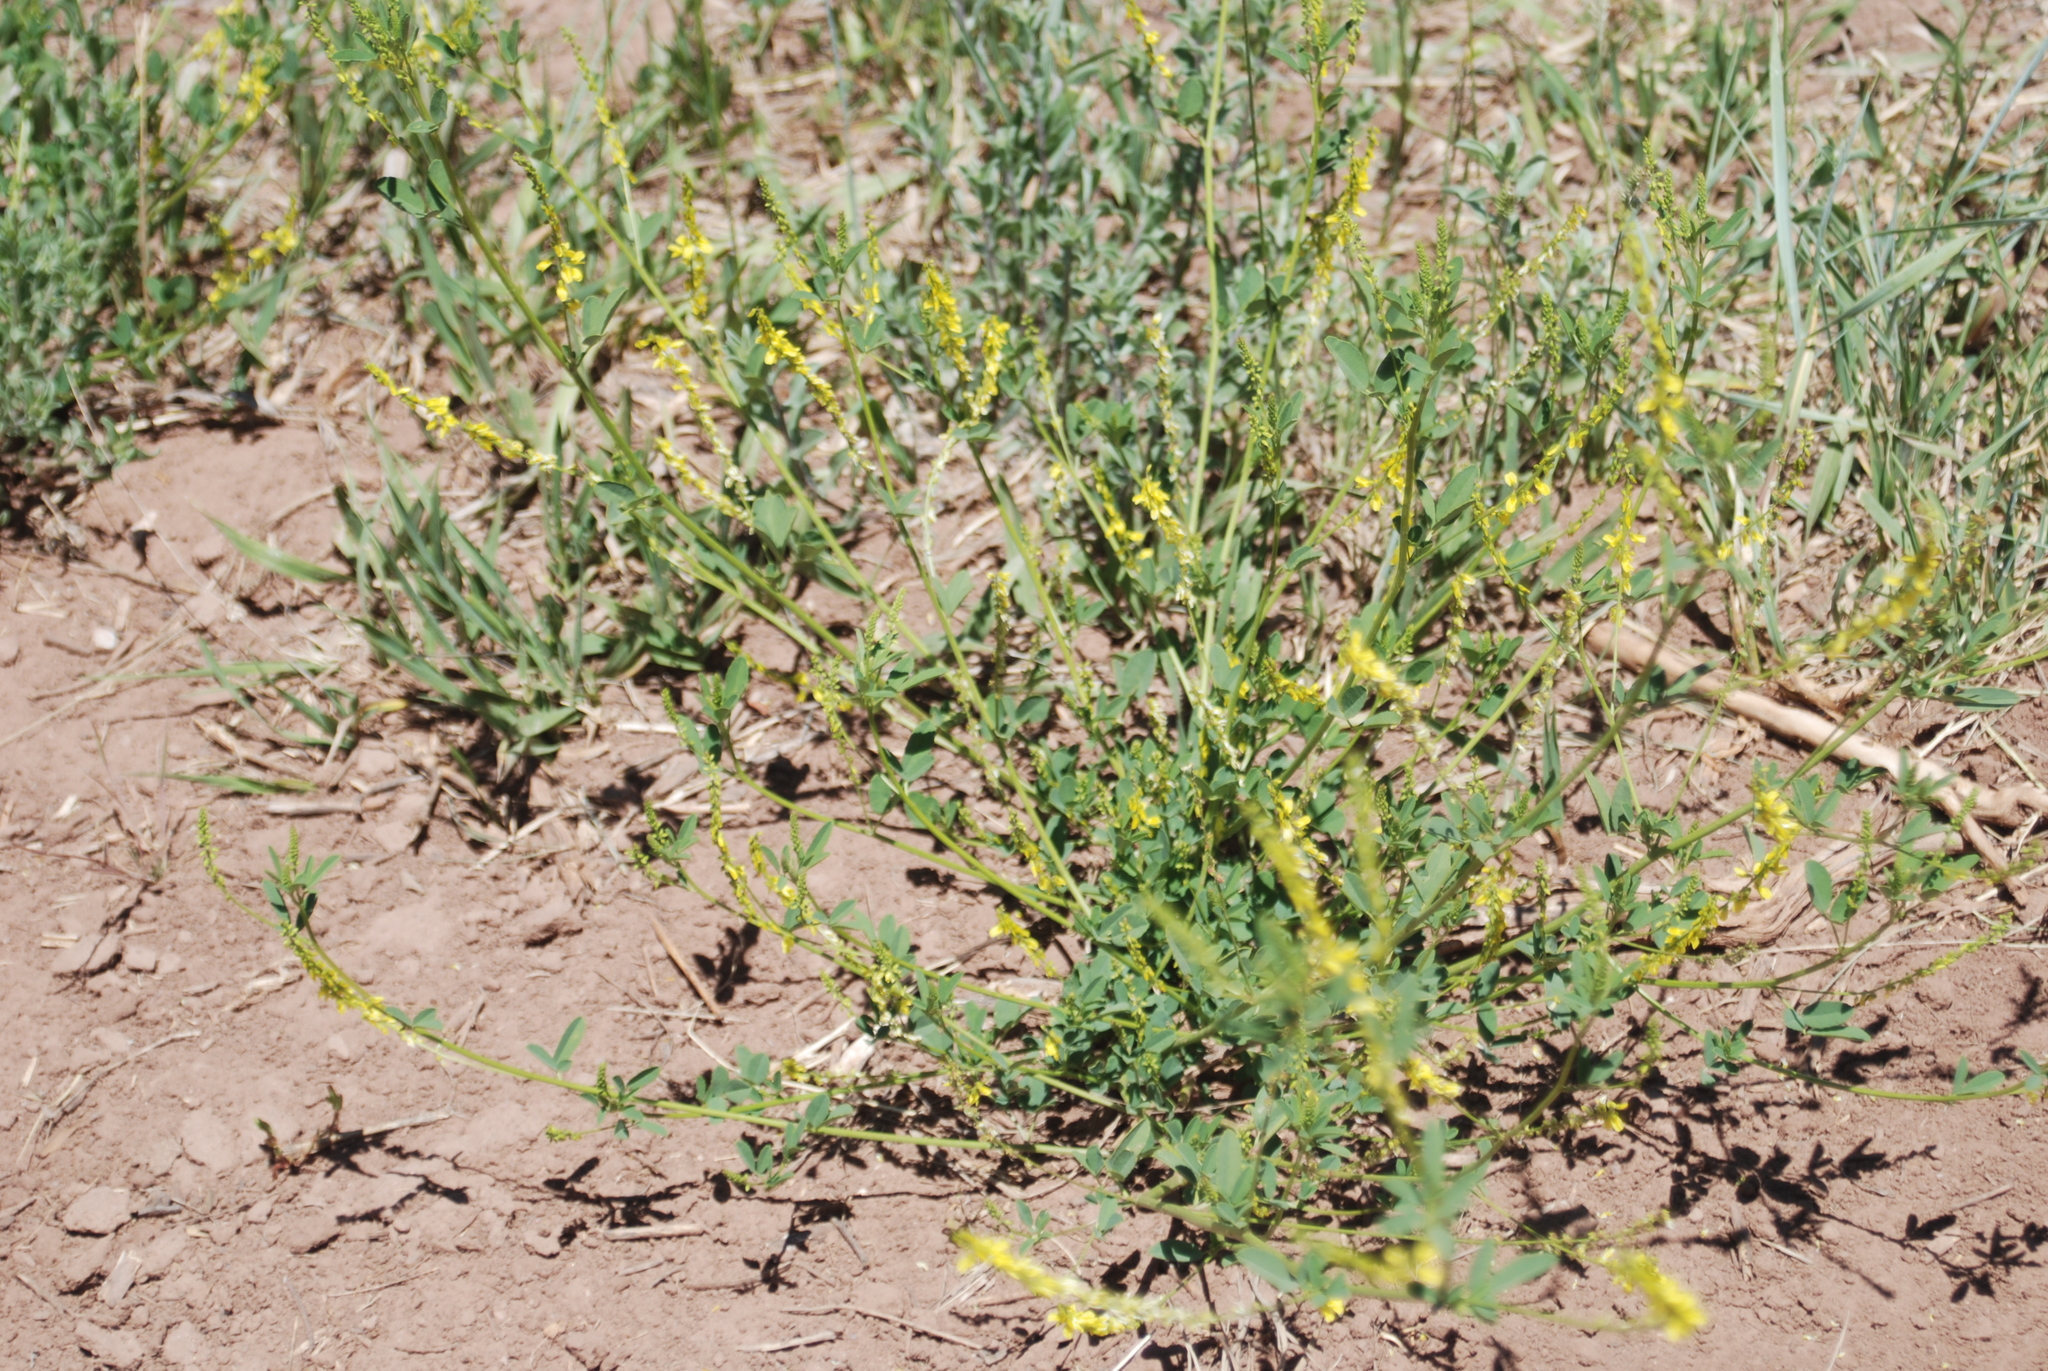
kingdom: Plantae
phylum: Tracheophyta
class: Magnoliopsida
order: Fabales
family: Fabaceae
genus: Melilotus
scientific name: Melilotus officinalis
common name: Sweetclover
